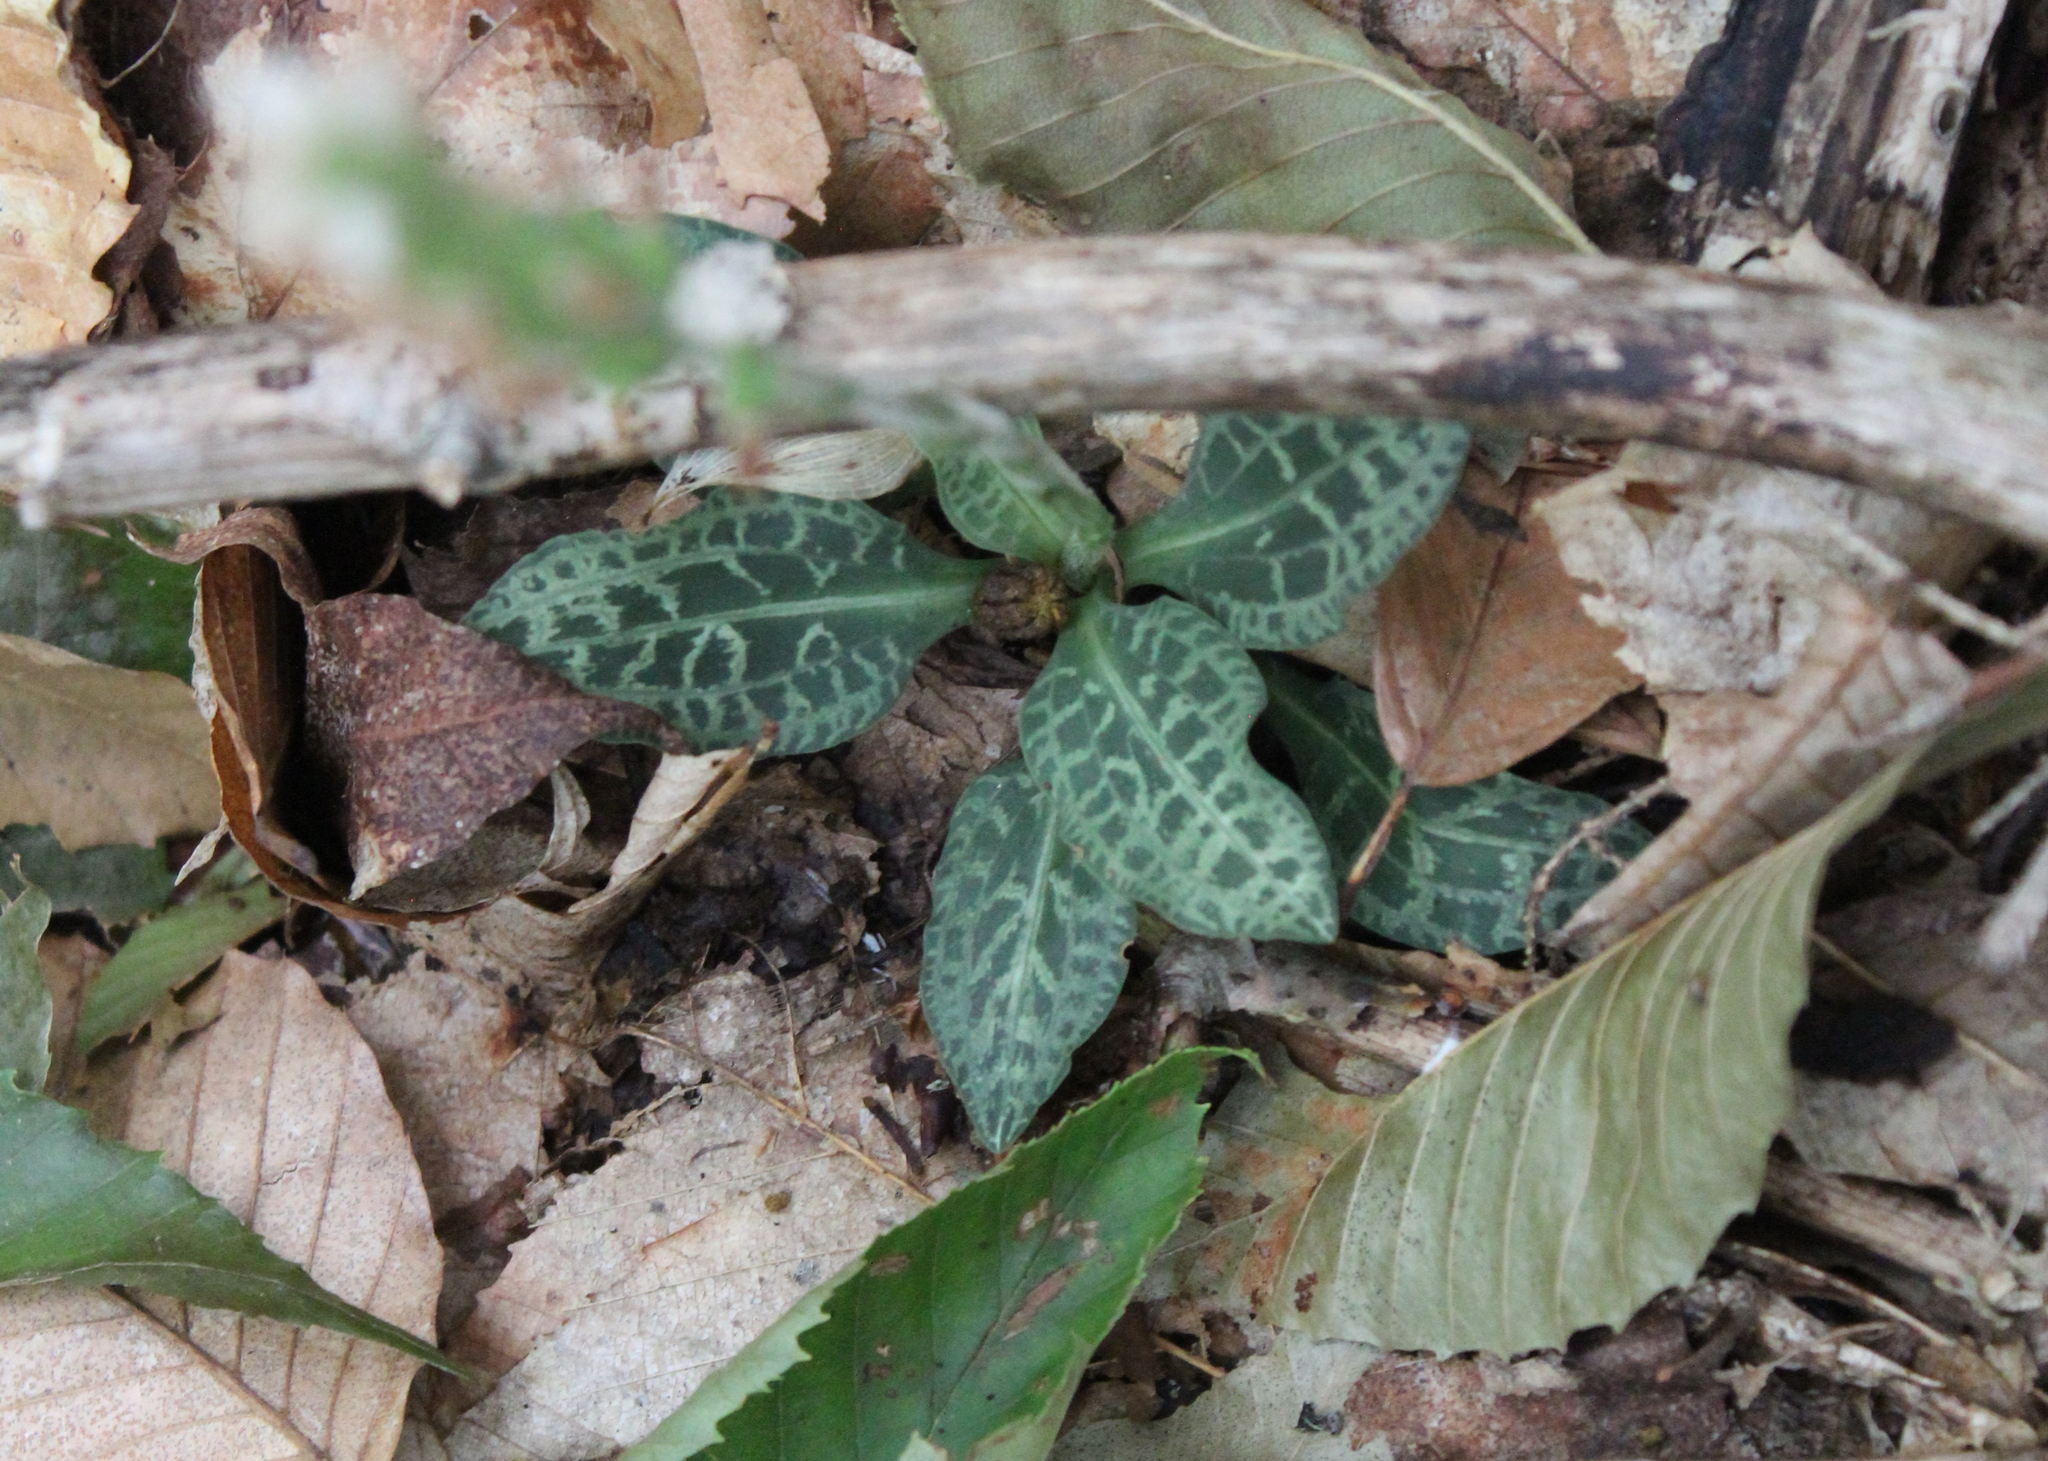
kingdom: Plantae
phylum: Tracheophyta
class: Liliopsida
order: Asparagales
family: Orchidaceae
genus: Goodyera
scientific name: Goodyera tesselata
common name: Checkered rattlesnake-plantain
